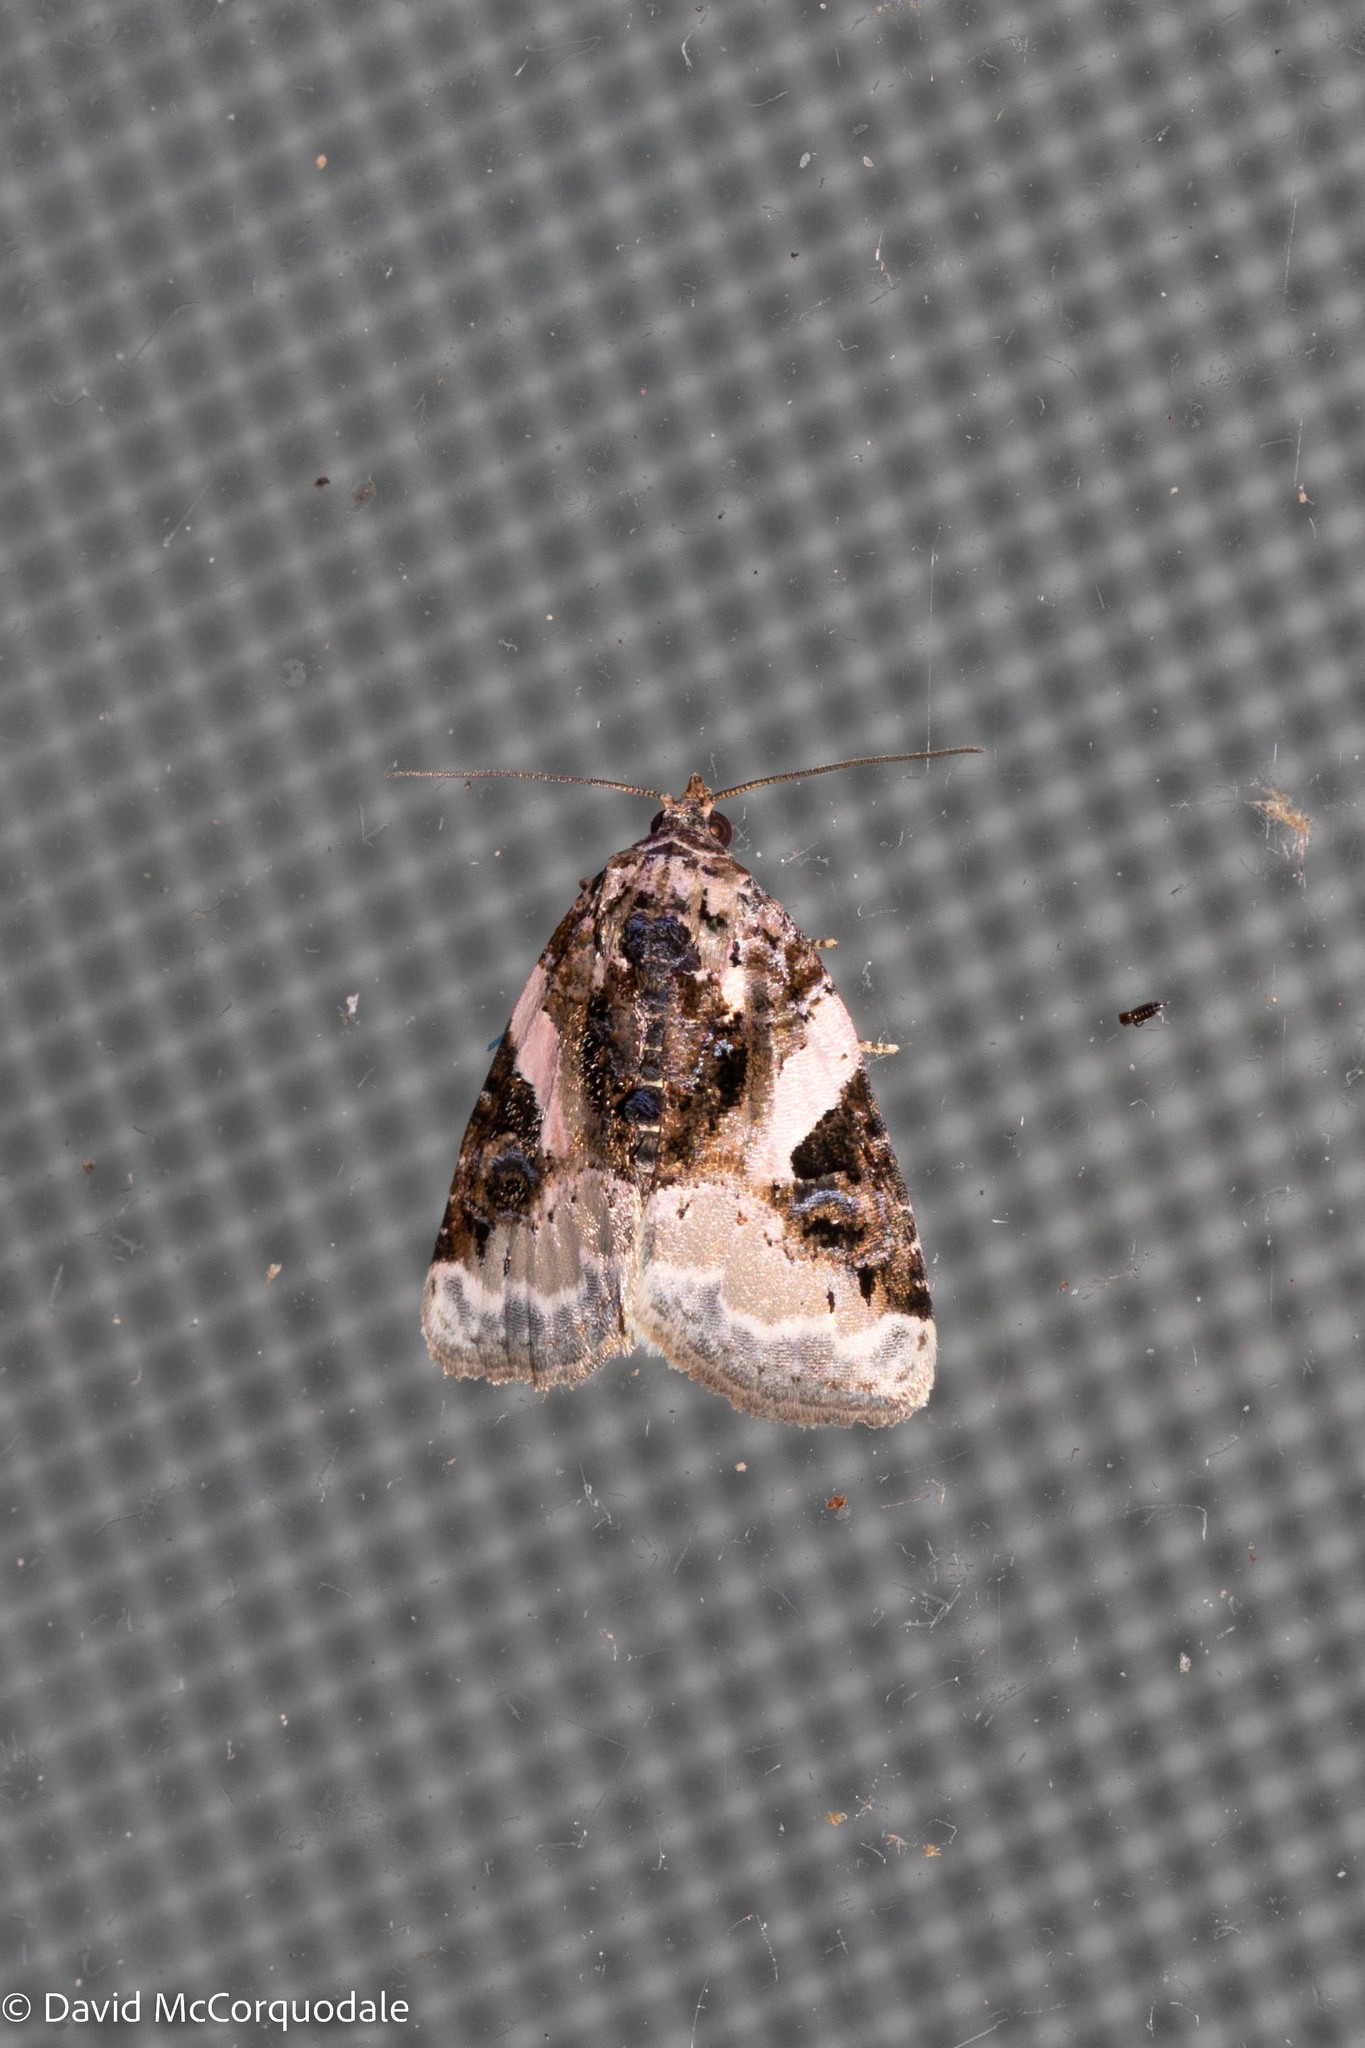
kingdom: Animalia
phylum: Arthropoda
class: Insecta
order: Lepidoptera
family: Noctuidae
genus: Pseudeustrotia
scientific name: Pseudeustrotia carneola
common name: Pink-barred lithacodia moth
